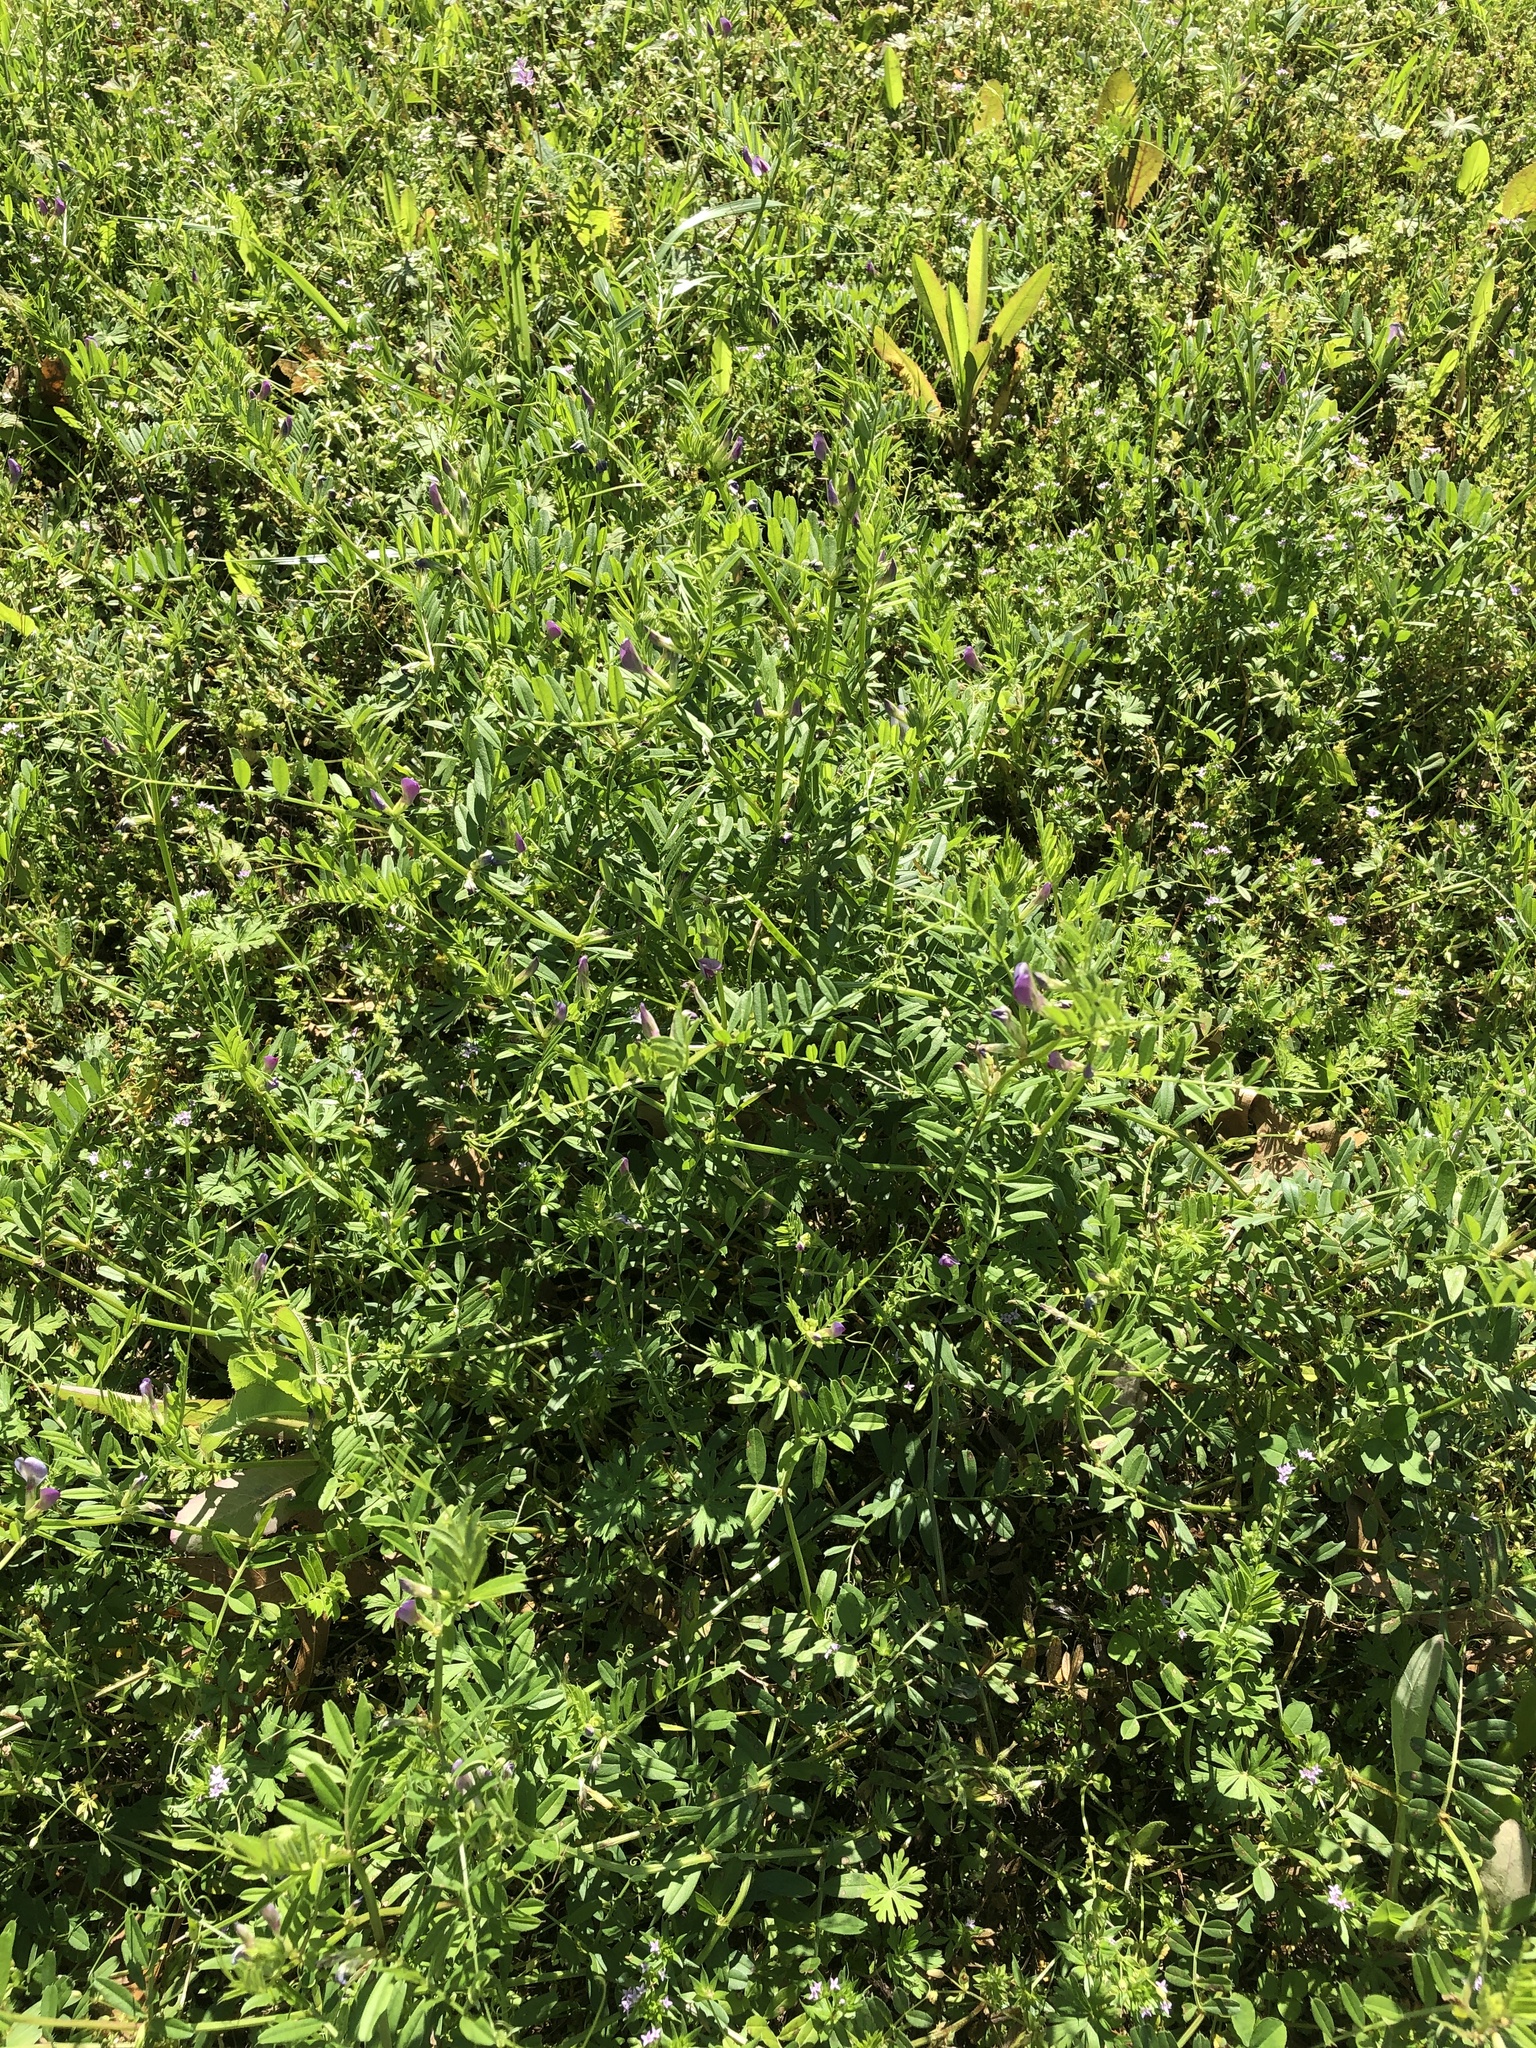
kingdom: Plantae
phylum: Tracheophyta
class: Magnoliopsida
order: Fabales
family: Fabaceae
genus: Vicia
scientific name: Vicia sativa
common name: Garden vetch
